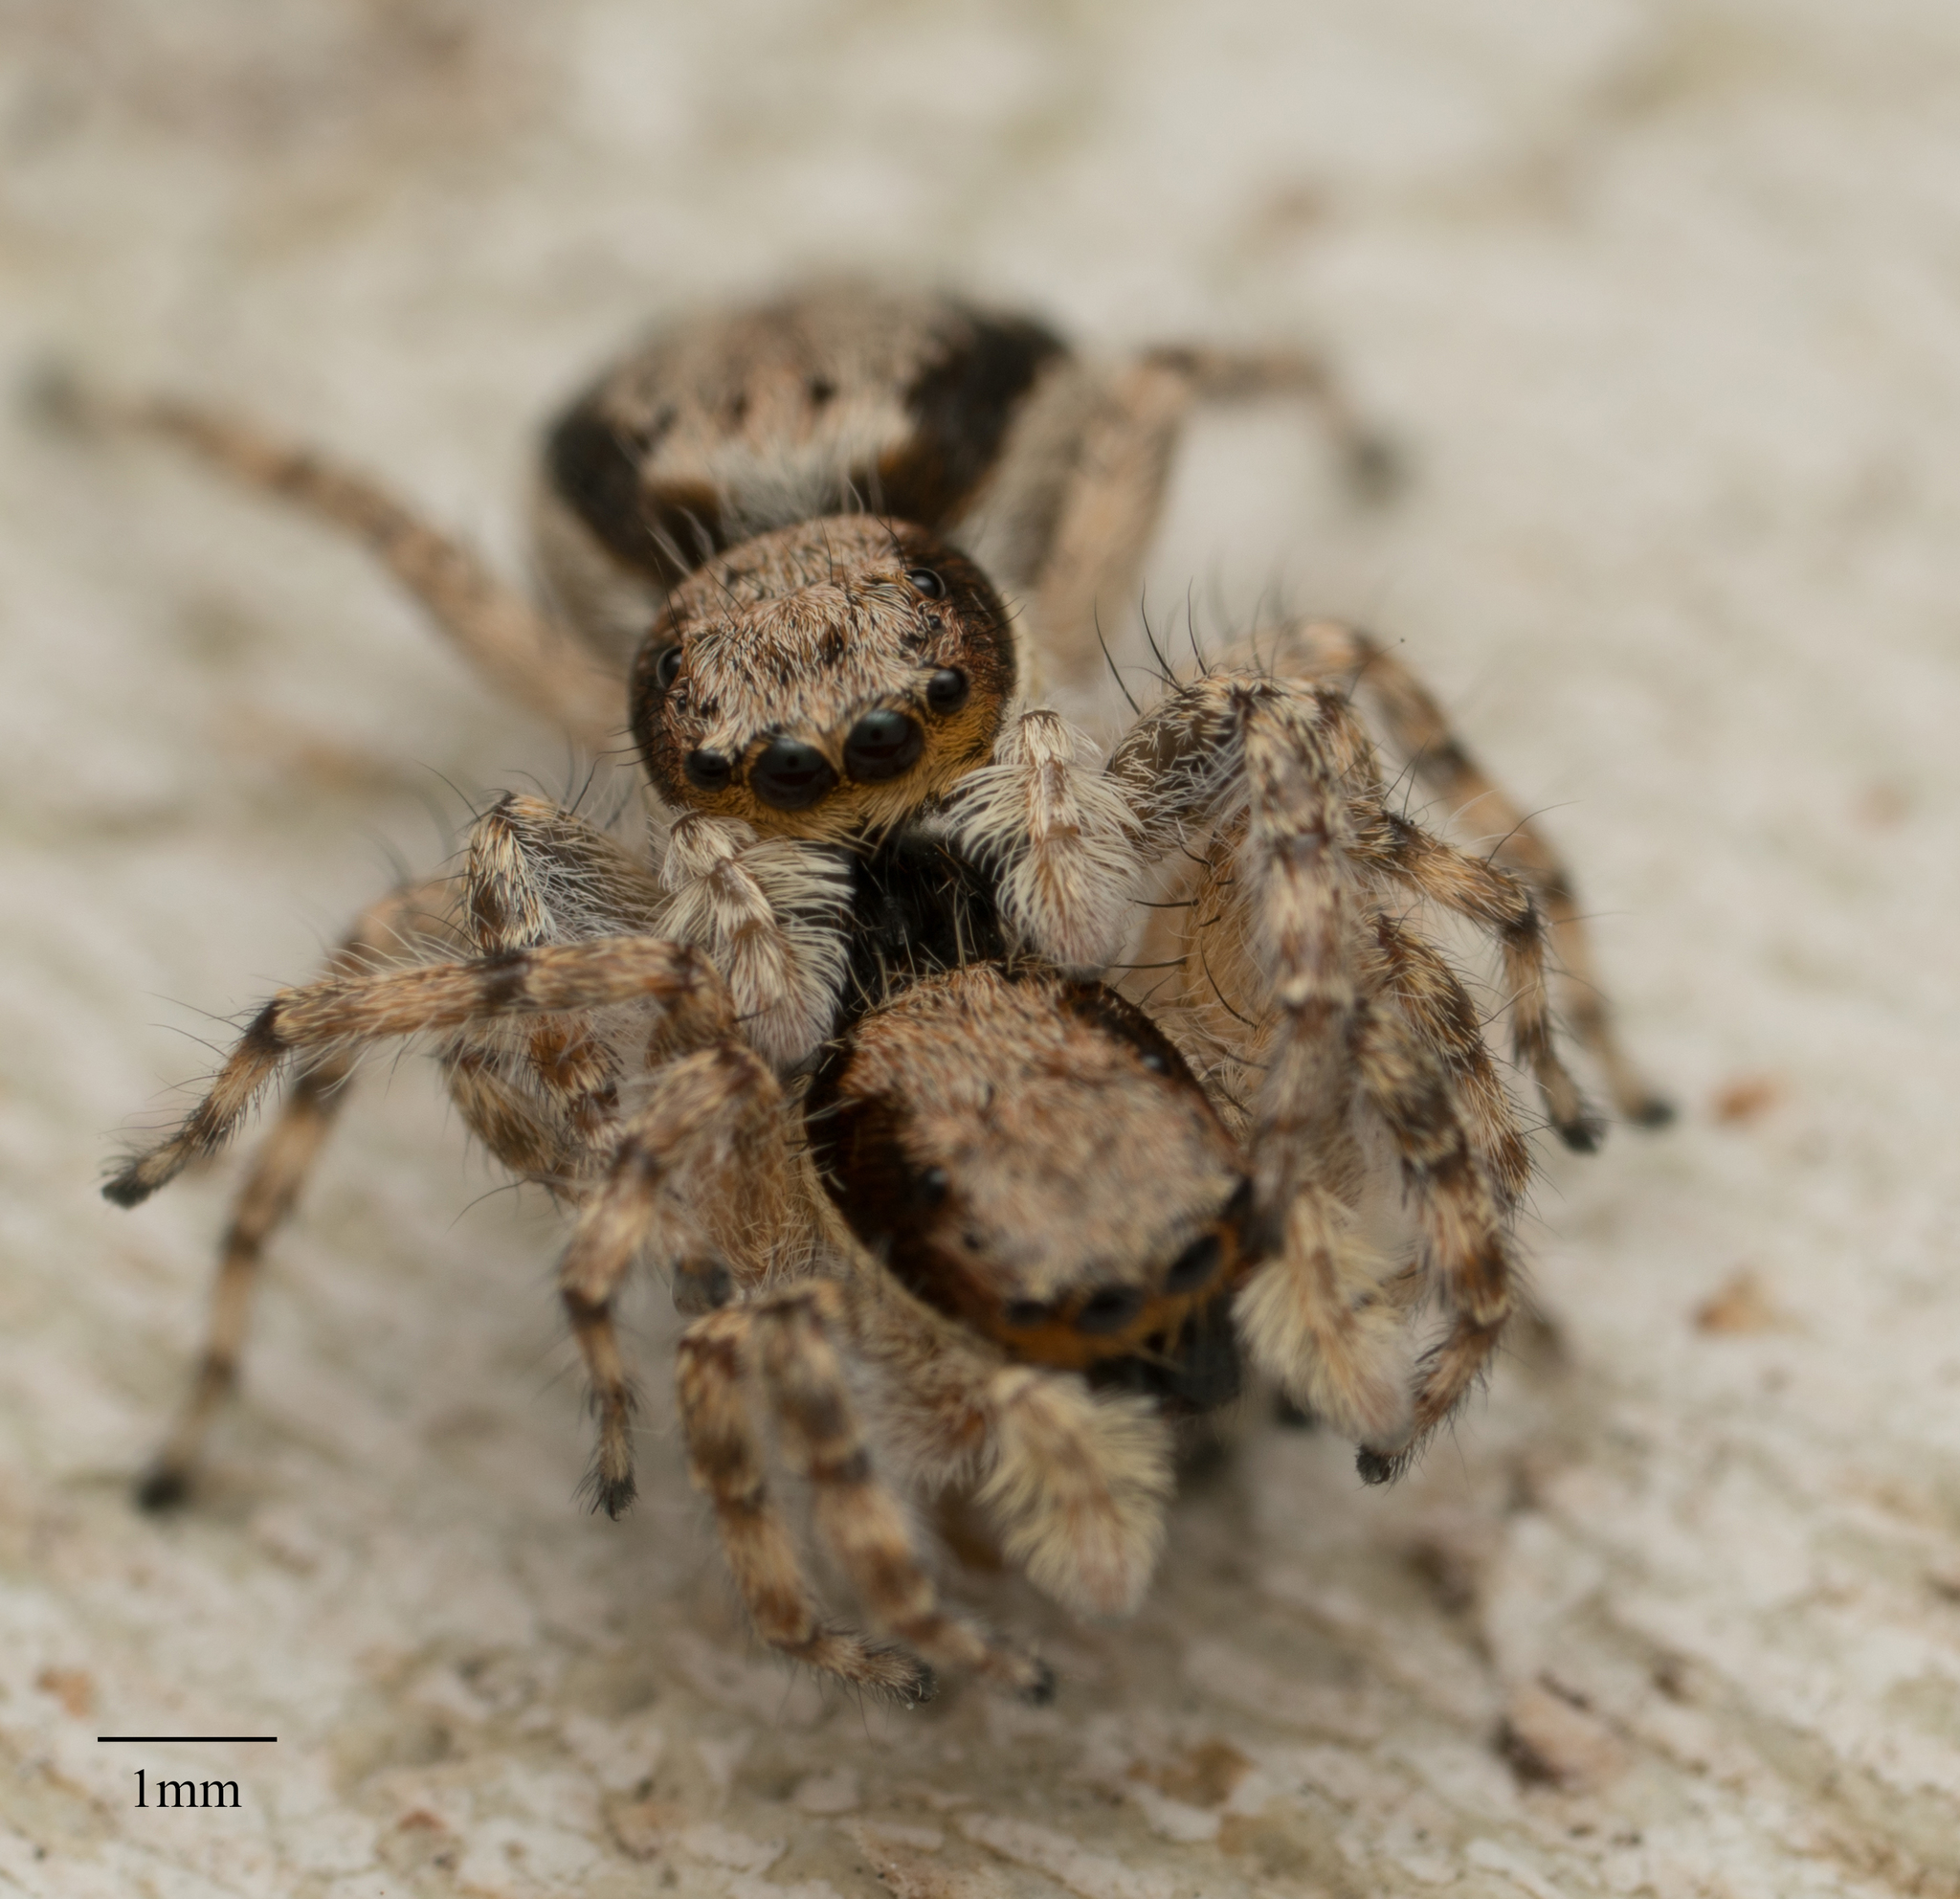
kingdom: Animalia
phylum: Arthropoda
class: Arachnida
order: Araneae
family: Salticidae
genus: Menemerus
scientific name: Menemerus bivittatus
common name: Gray wall jumper
